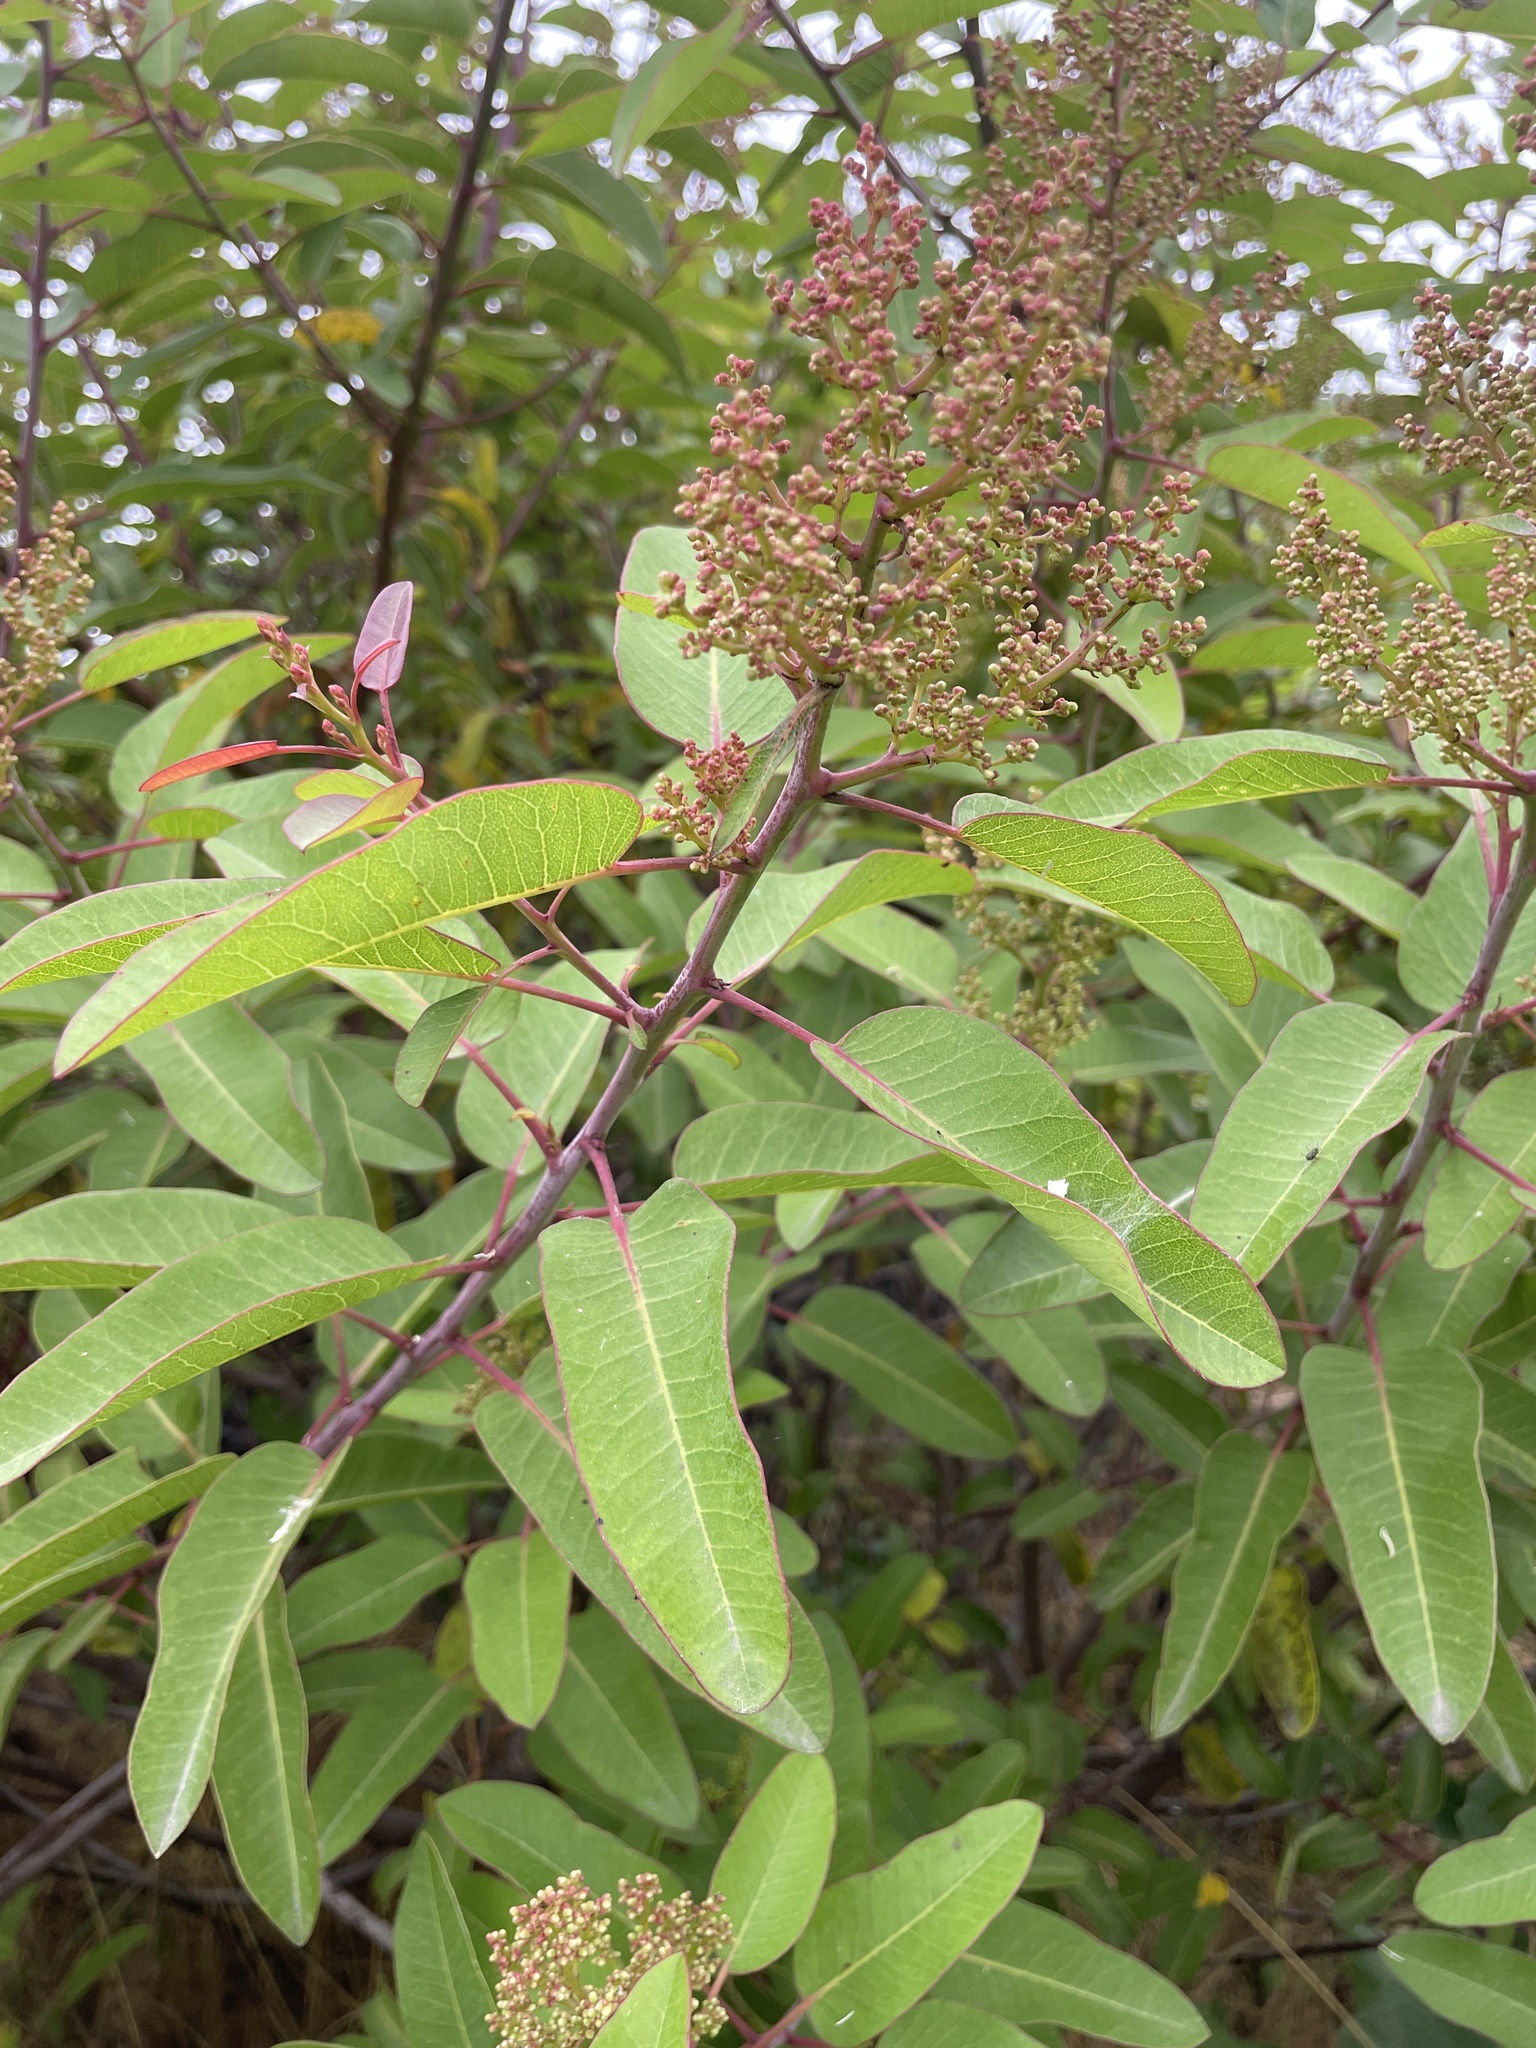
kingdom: Plantae
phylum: Tracheophyta
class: Magnoliopsida
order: Sapindales
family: Anacardiaceae
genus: Malosma
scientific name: Malosma laurina
